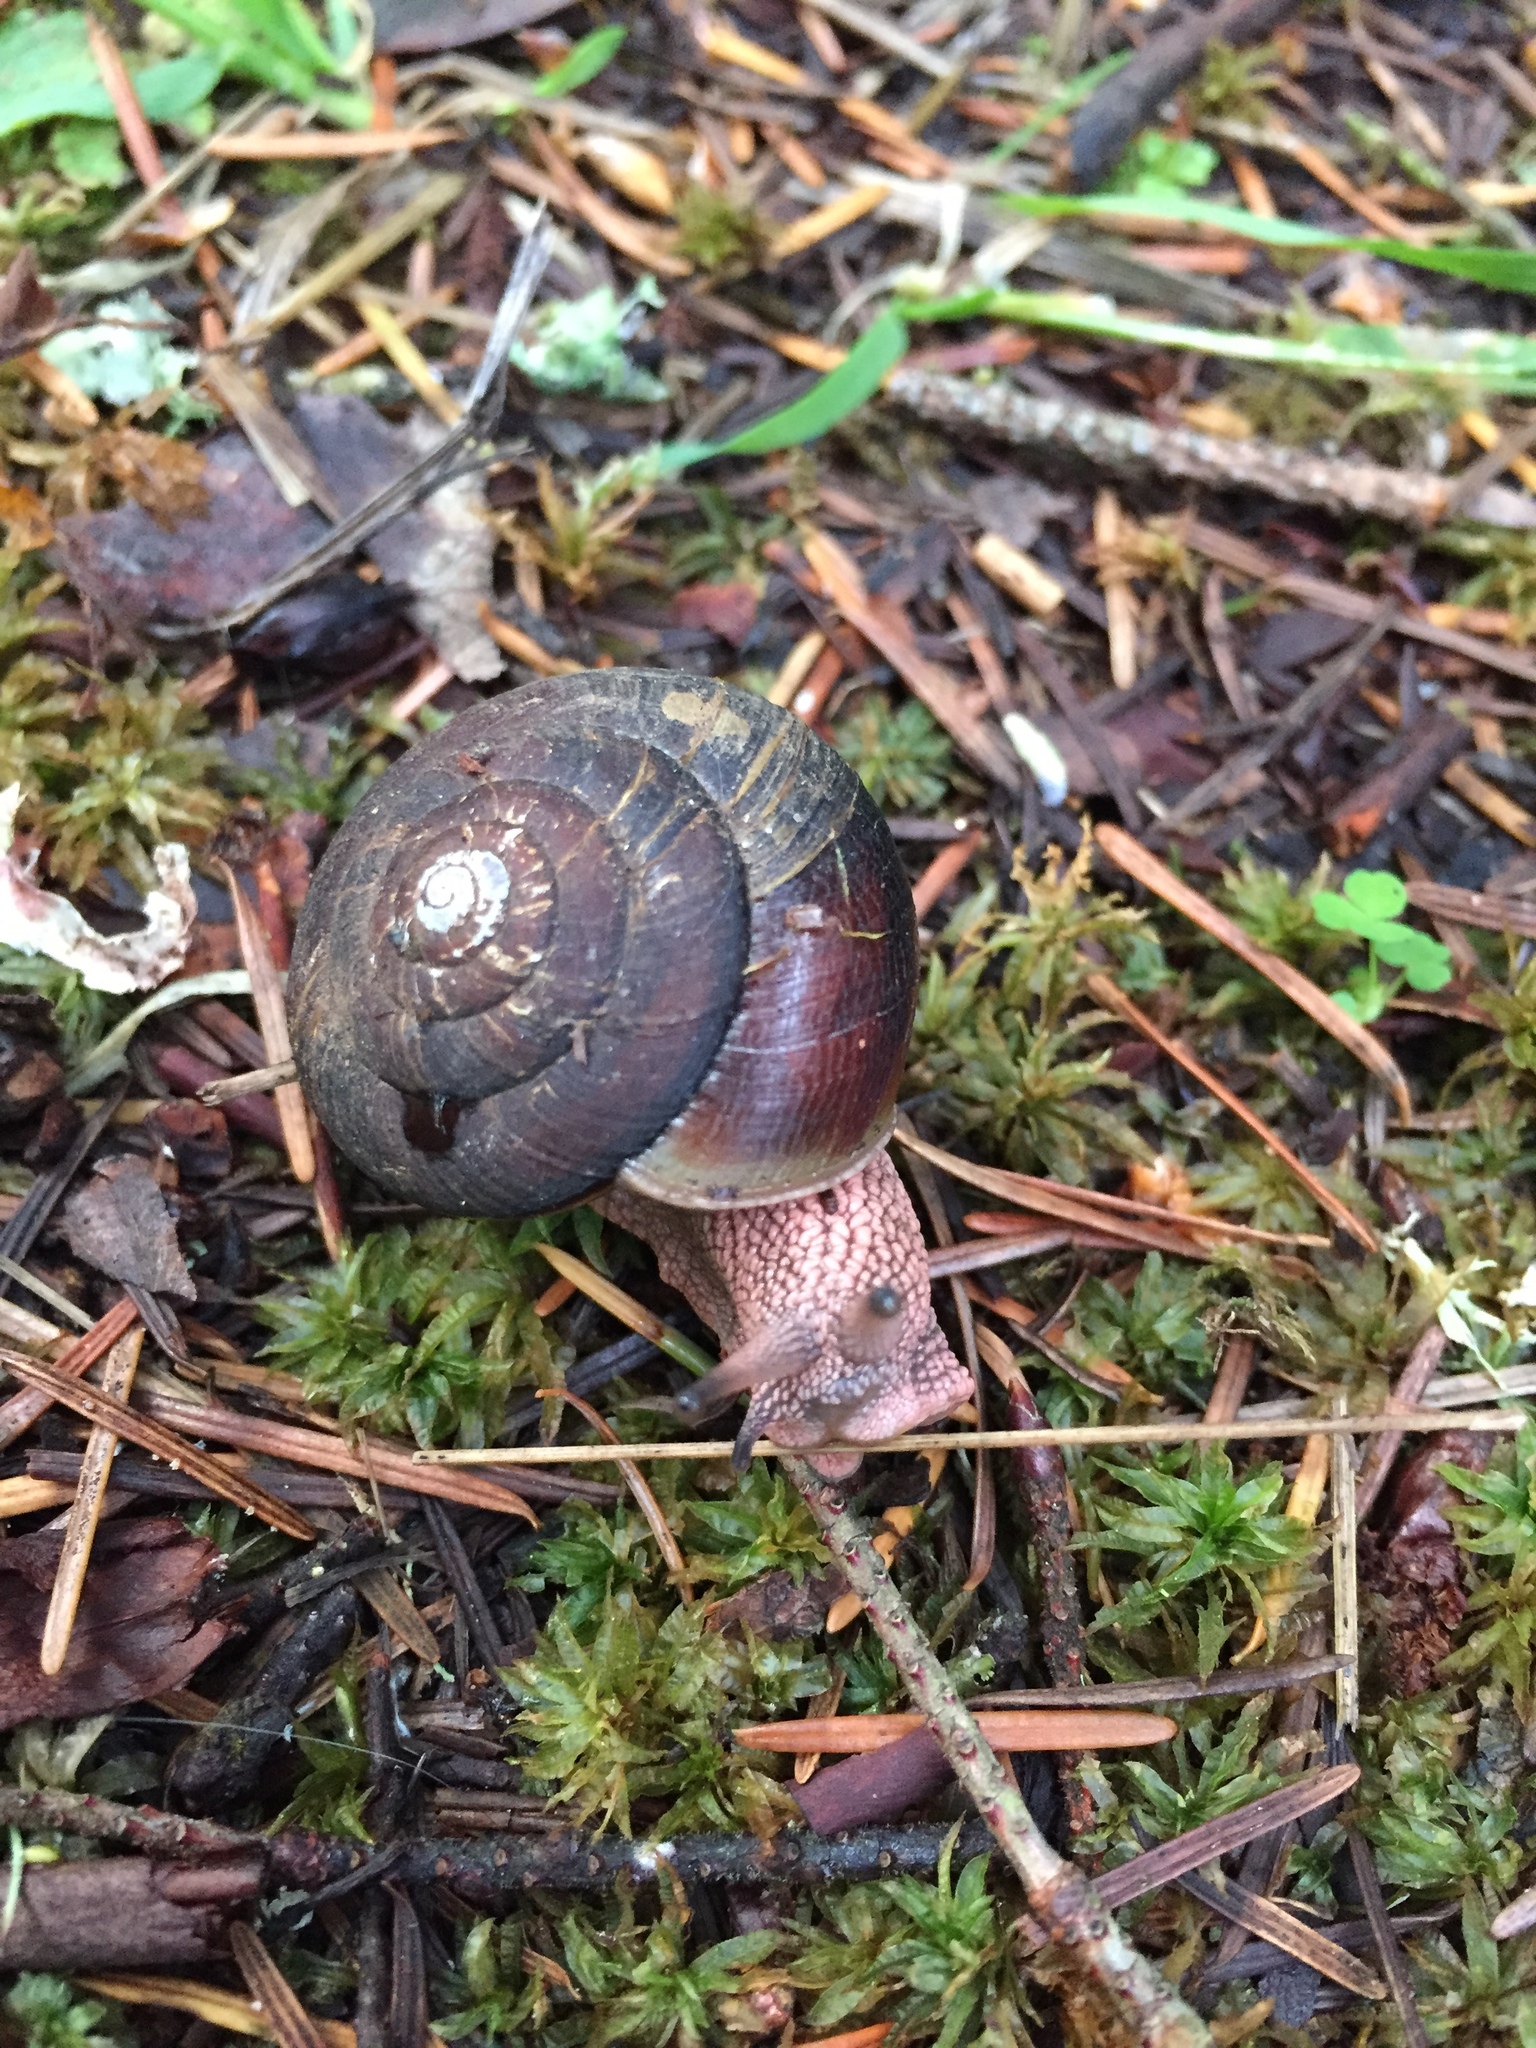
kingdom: Animalia
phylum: Mollusca
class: Gastropoda
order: Stylommatophora
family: Xanthonychidae
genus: Monadenia
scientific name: Monadenia fidelis
